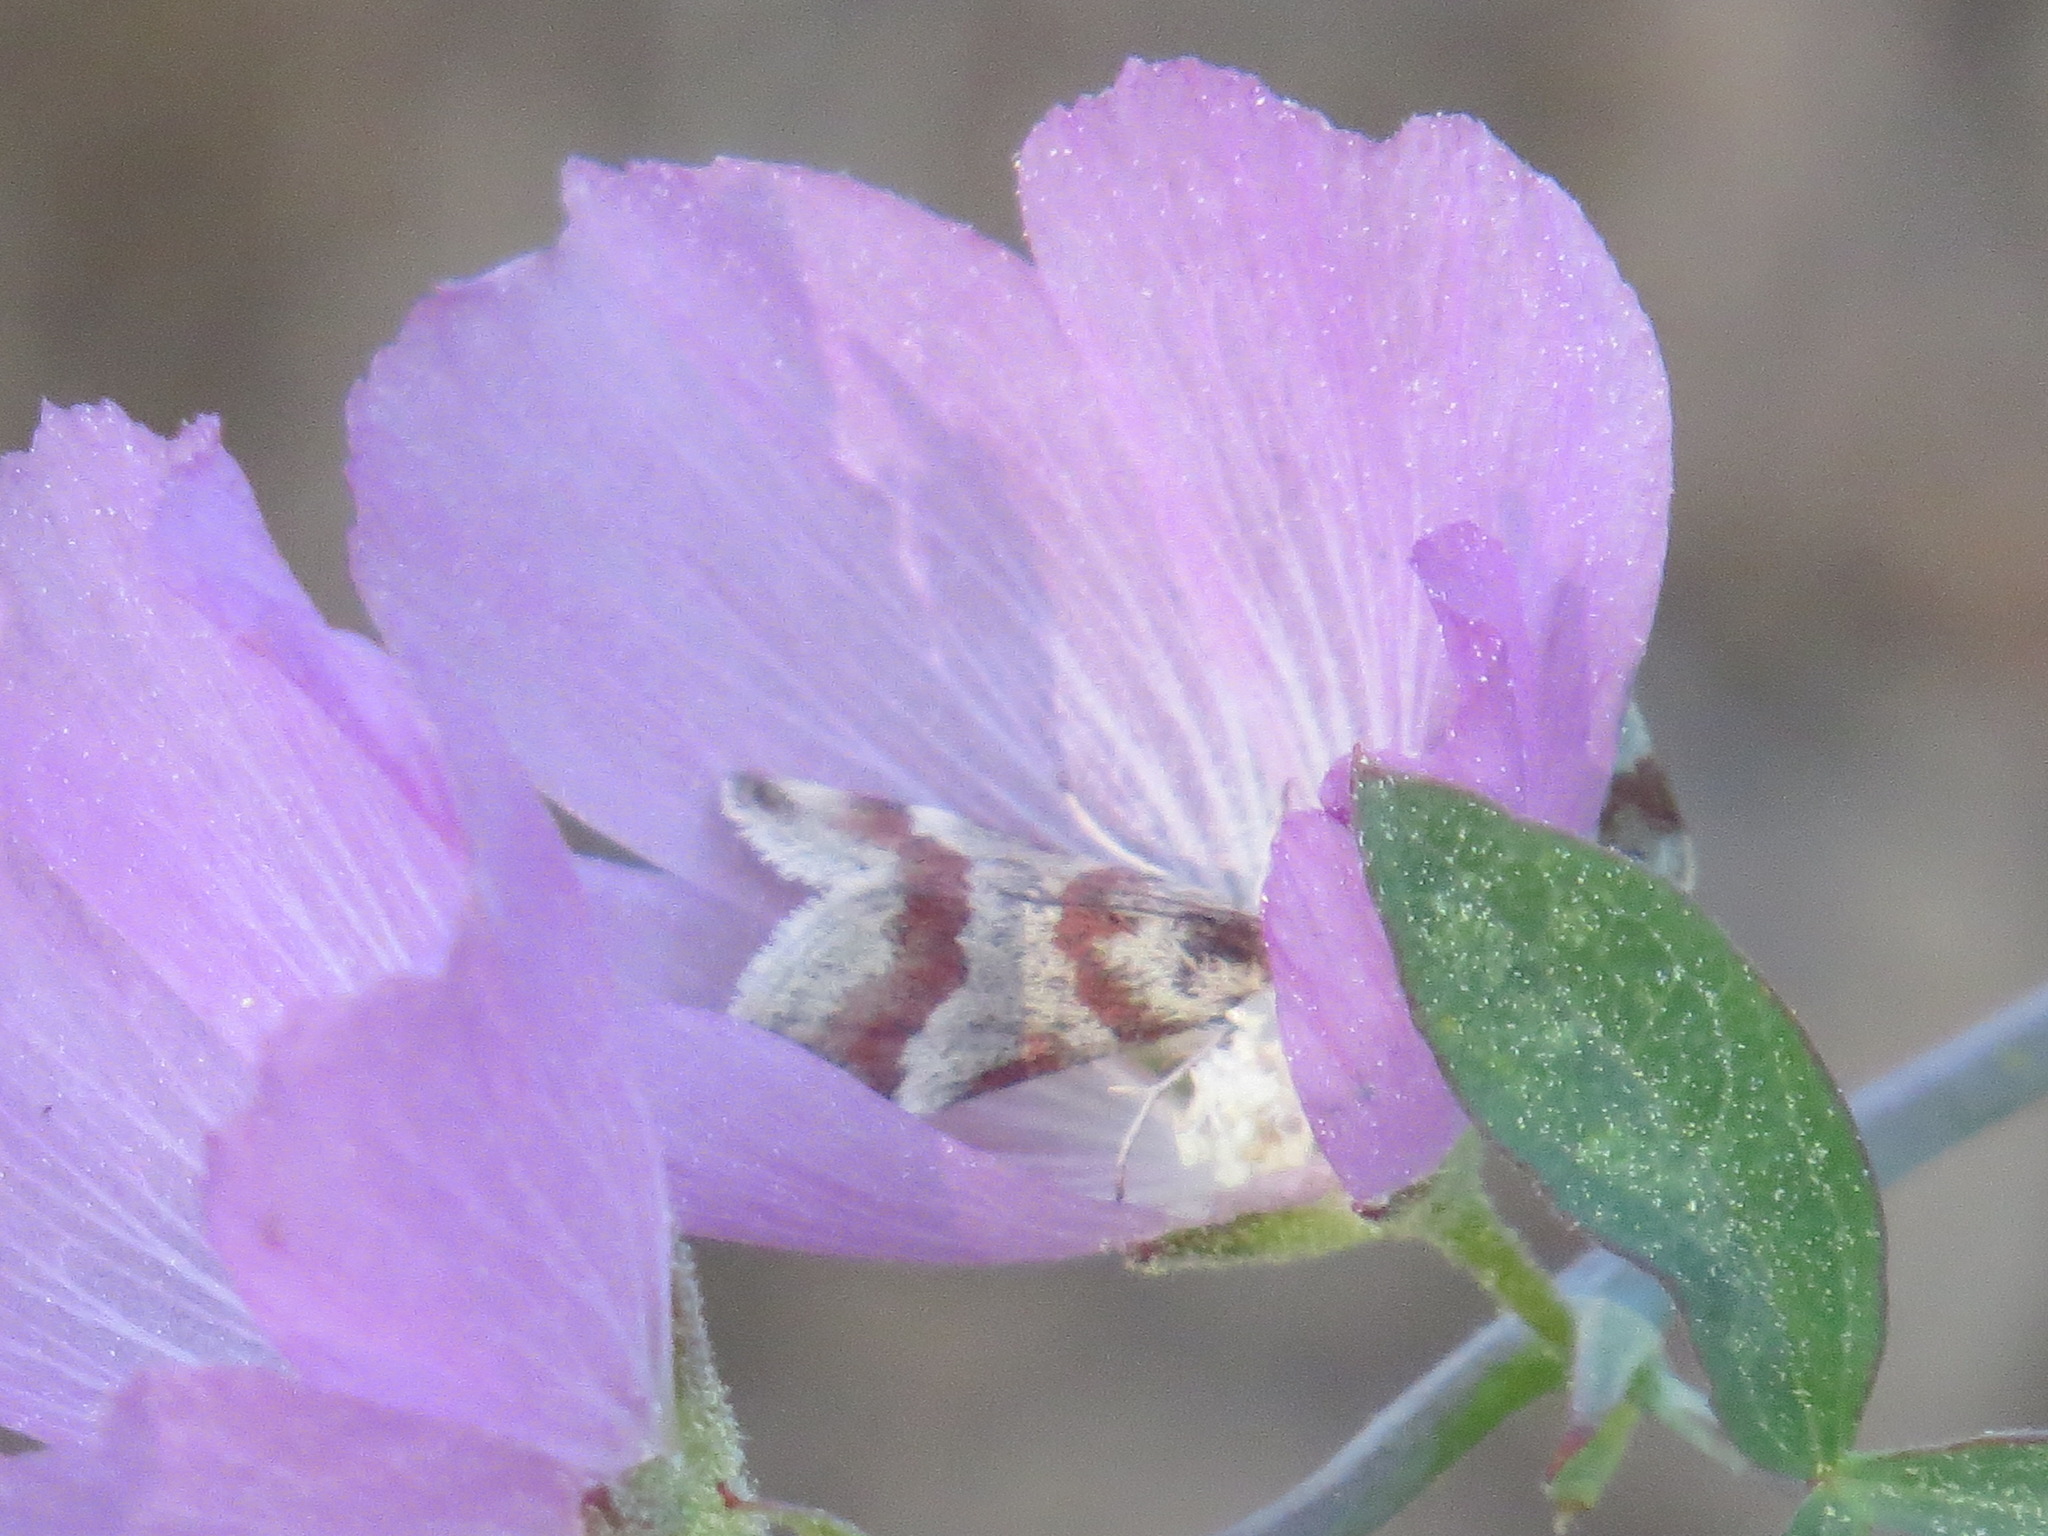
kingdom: Animalia
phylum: Arthropoda
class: Insecta
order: Lepidoptera
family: Crambidae
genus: Noctuelia
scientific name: Noctuelia Mimoschinia rufofascialis
